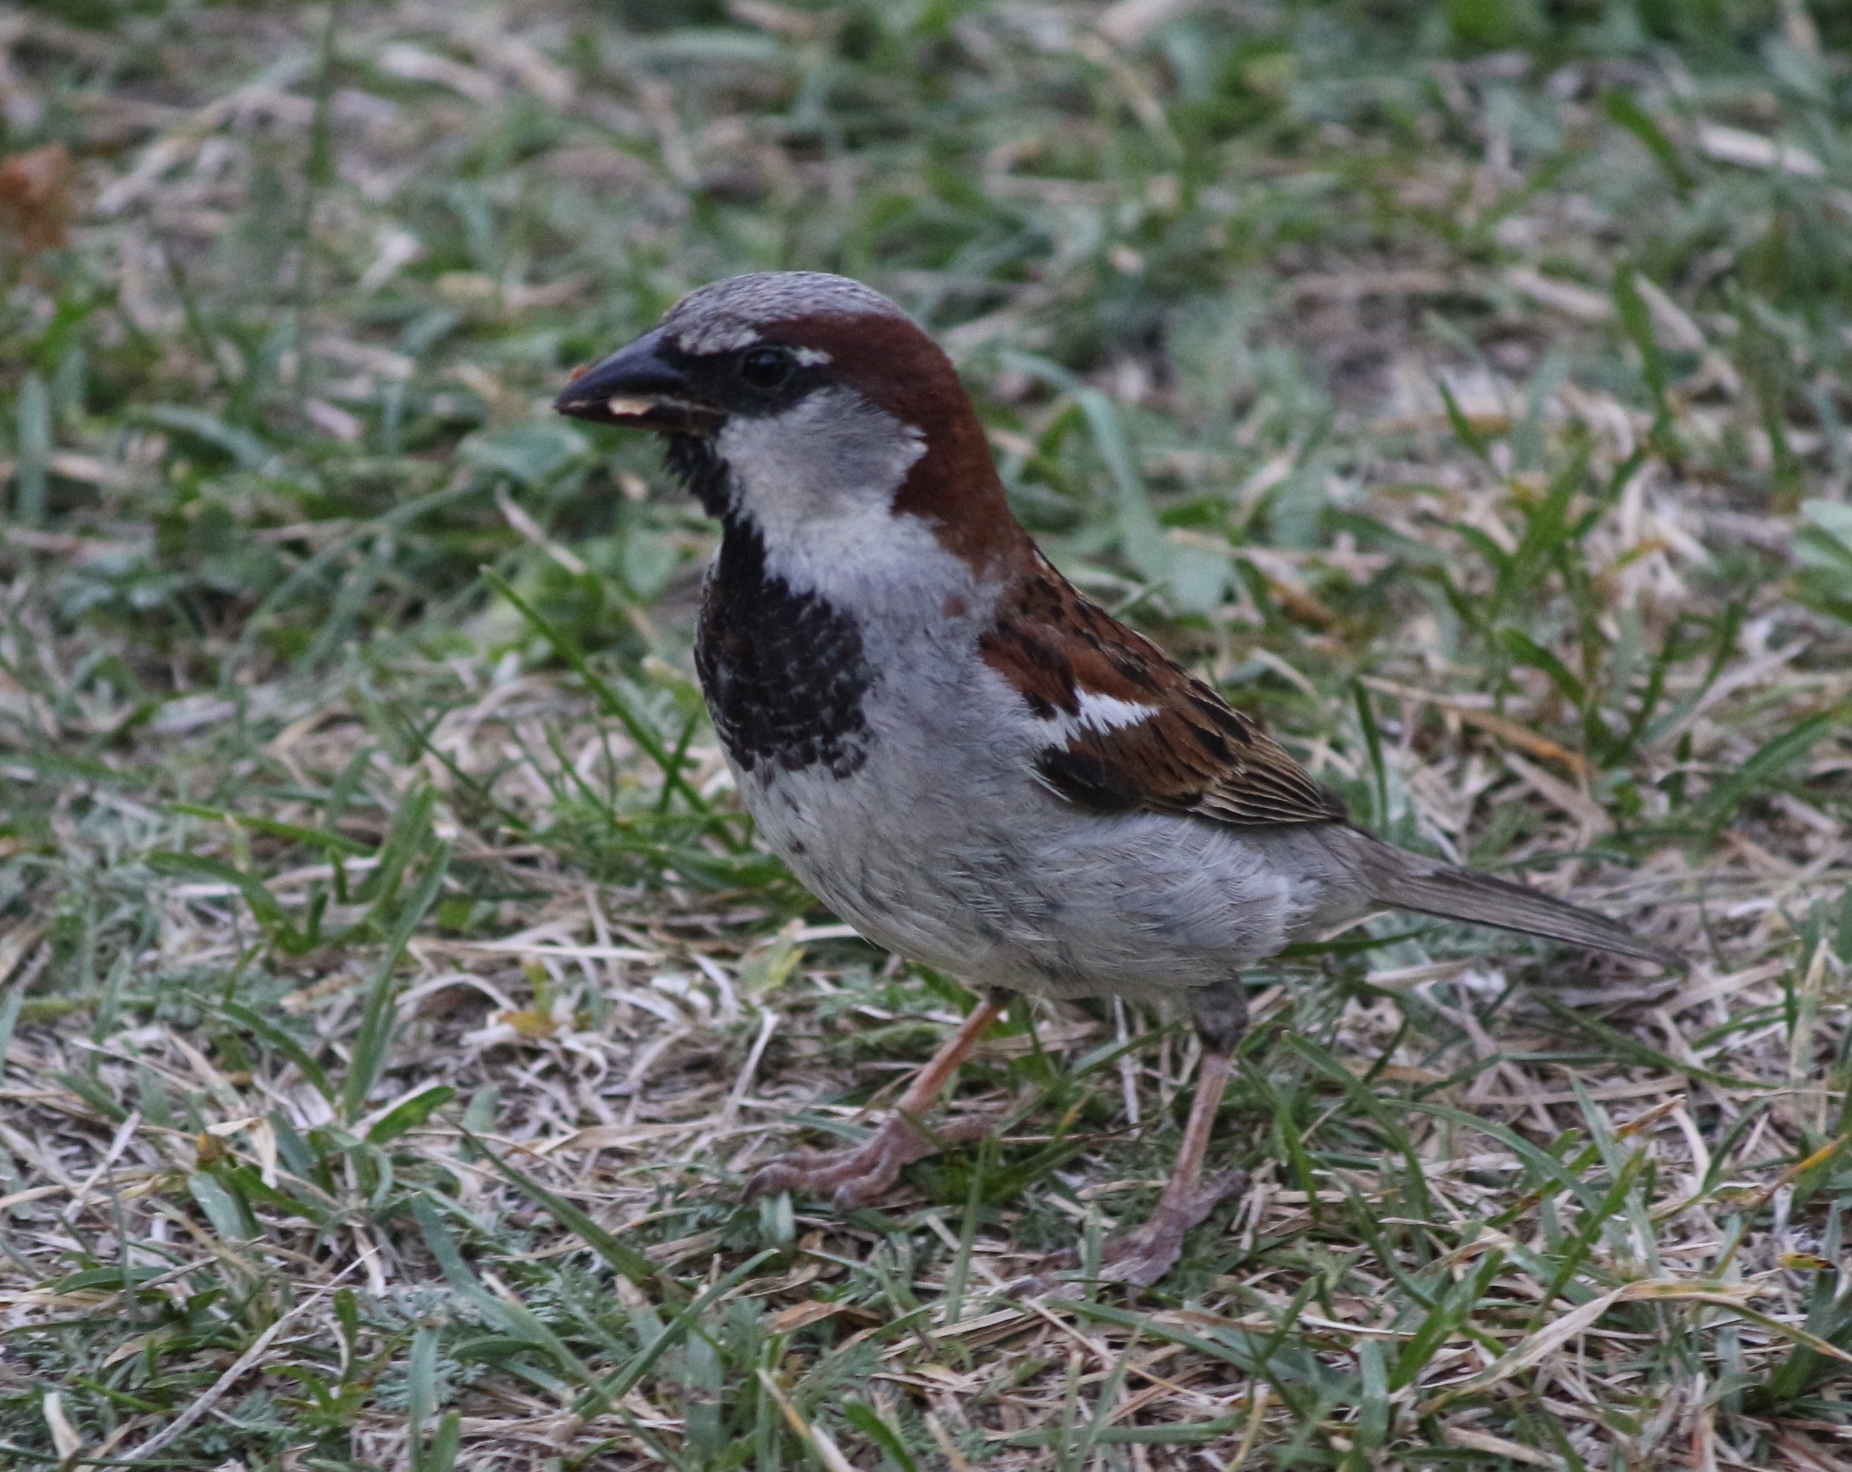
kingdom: Animalia
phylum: Chordata
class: Aves
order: Passeriformes
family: Passeridae
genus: Passer
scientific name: Passer domesticus
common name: House sparrow
